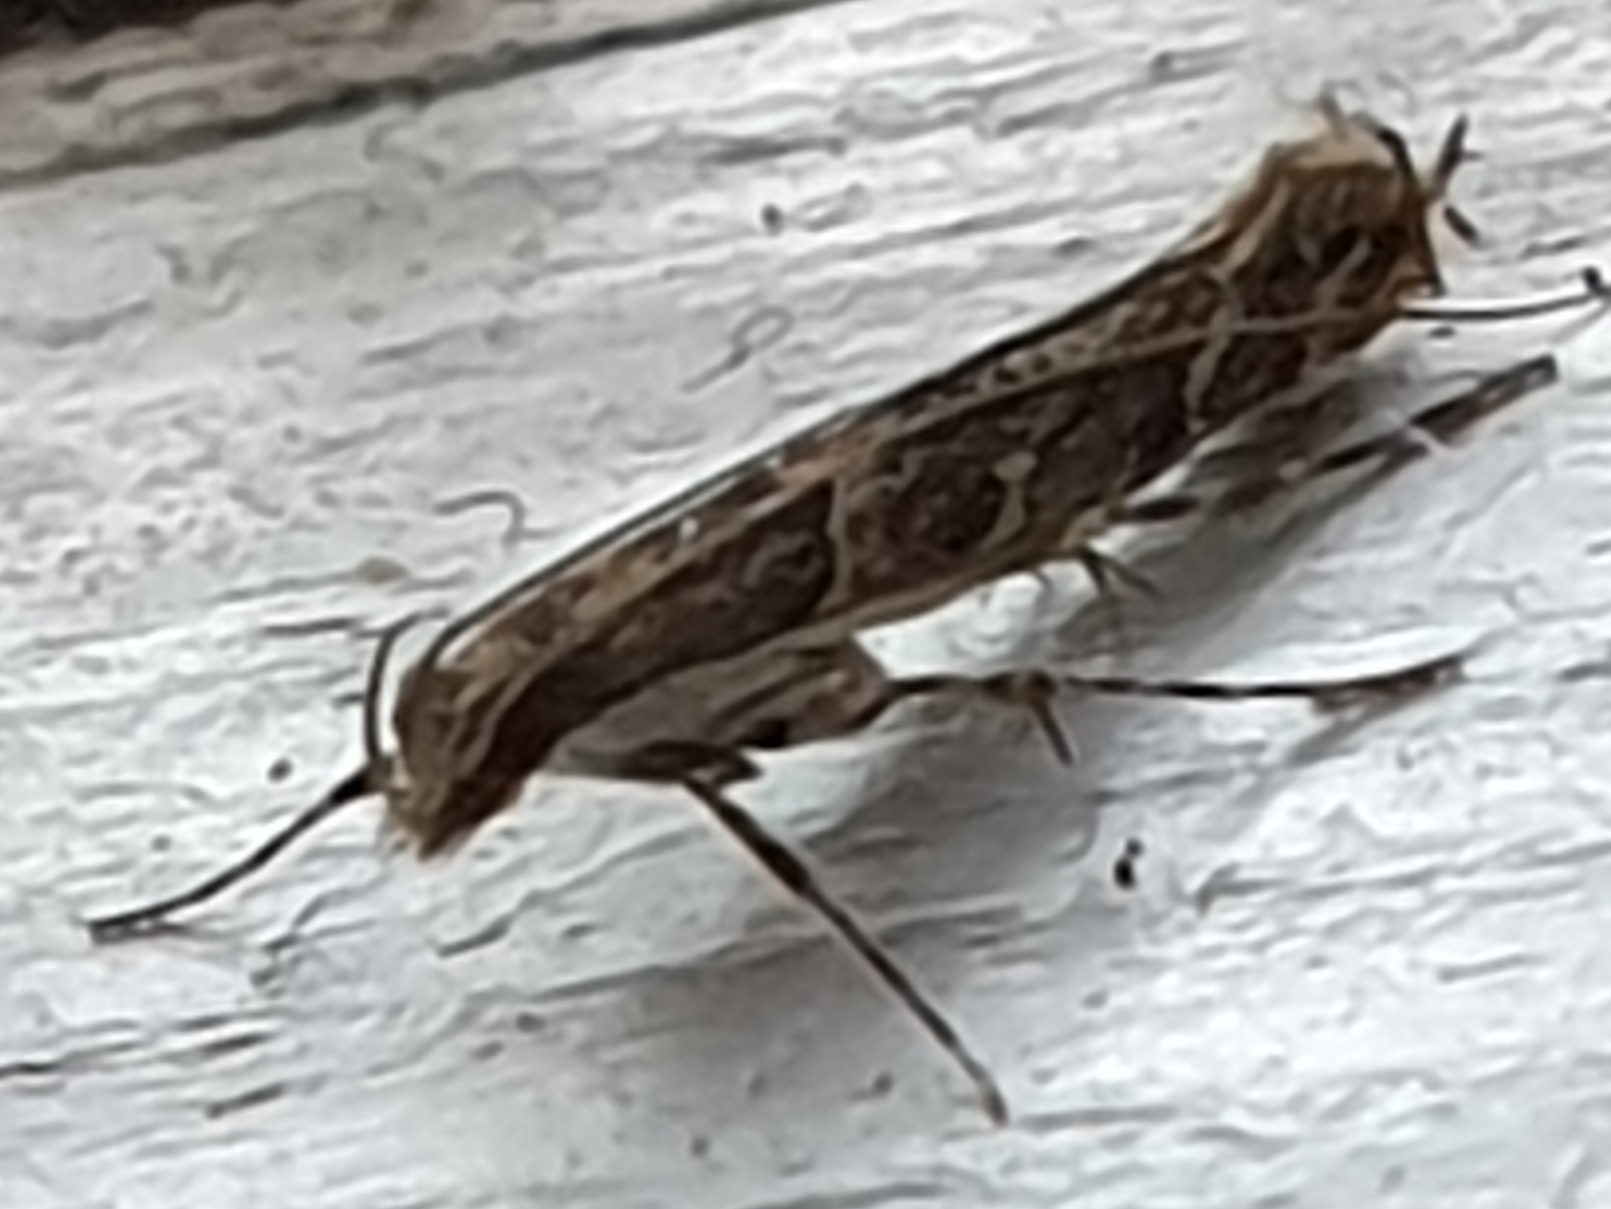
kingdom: Animalia
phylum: Arthropoda
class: Insecta
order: Lepidoptera
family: Gracillariidae
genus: Acrocercops
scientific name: Acrocercops brongniardella
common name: Brown oak slender
